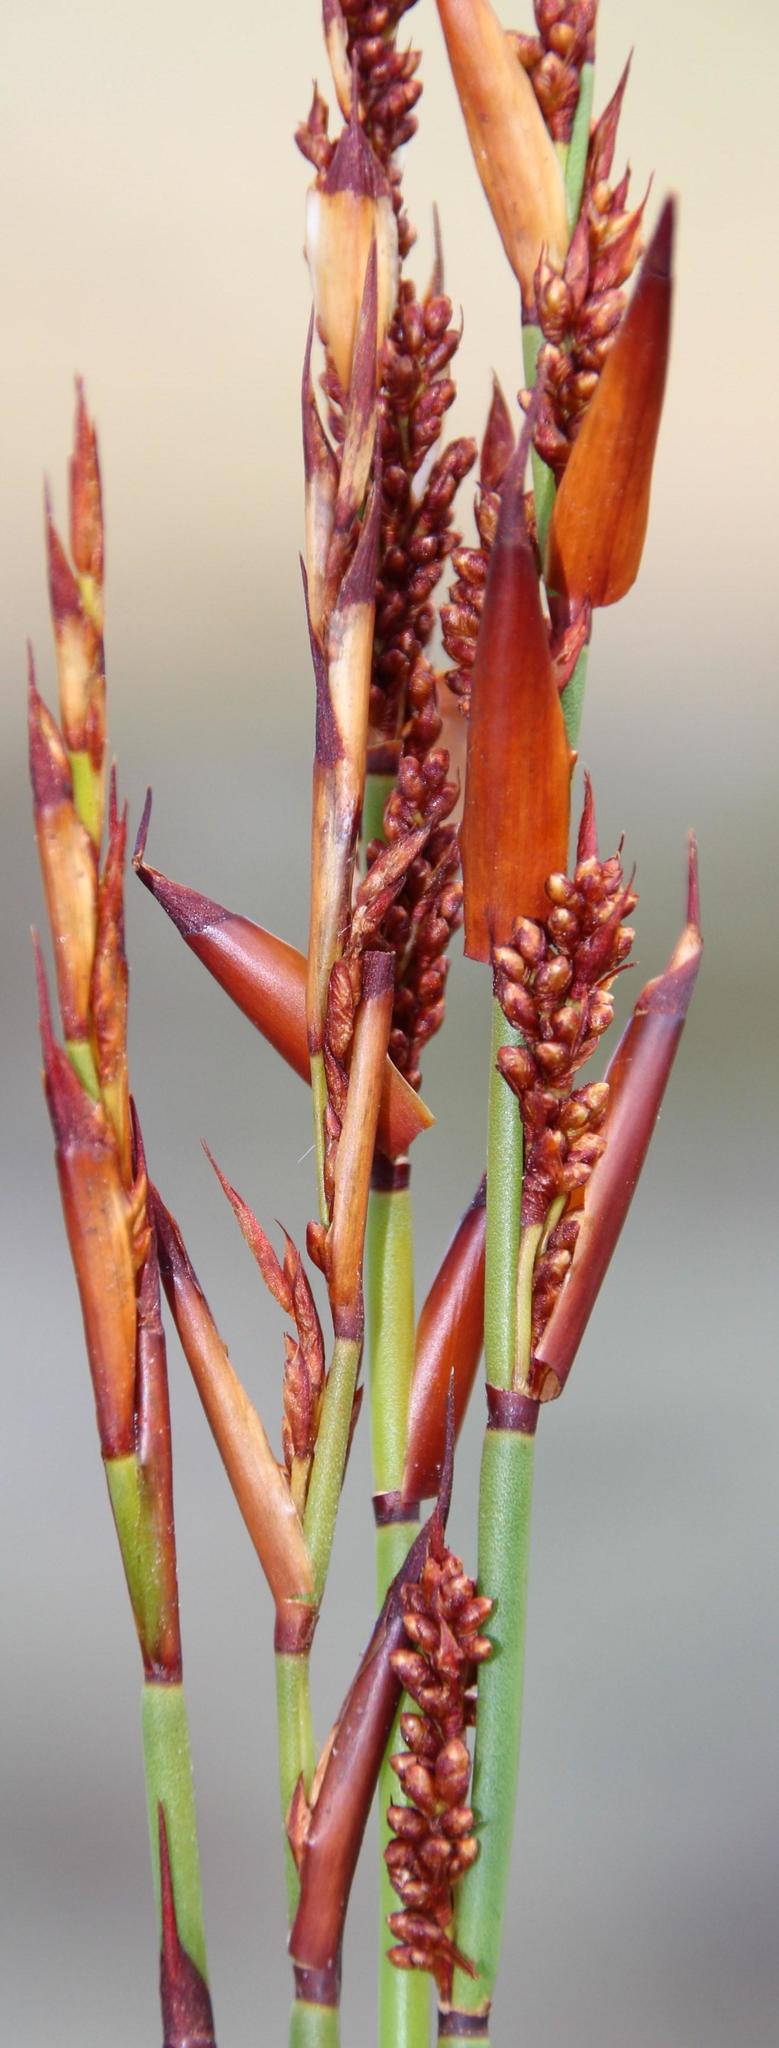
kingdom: Plantae
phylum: Tracheophyta
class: Liliopsida
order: Poales
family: Restionaceae
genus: Elegia
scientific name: Elegia nuda
